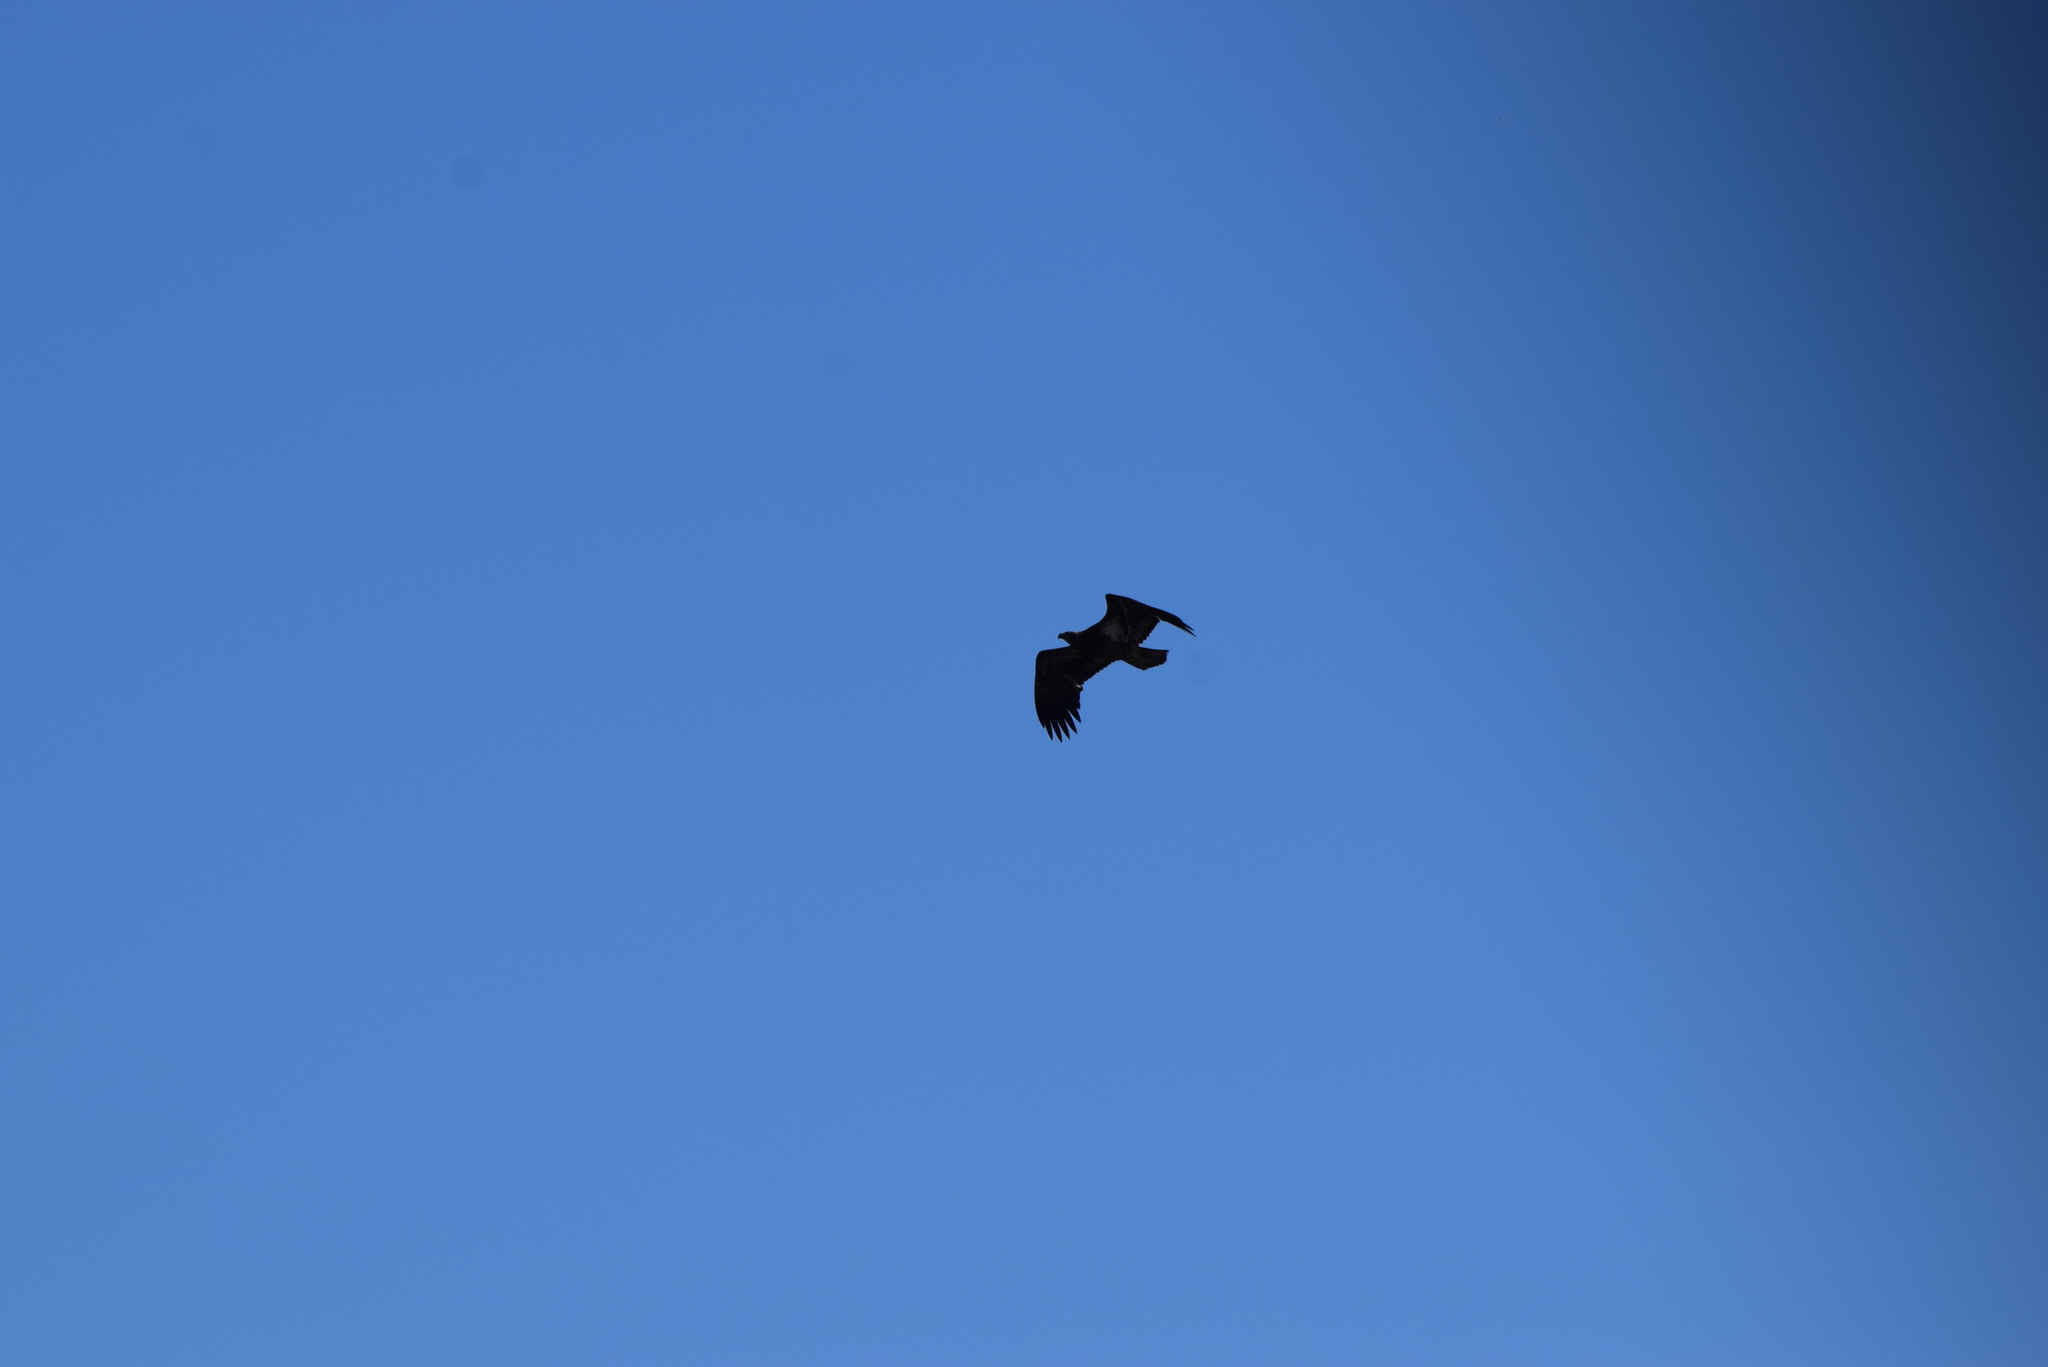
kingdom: Animalia
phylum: Chordata
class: Aves
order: Accipitriformes
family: Accipitridae
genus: Haliaeetus
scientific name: Haliaeetus leucocephalus
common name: Bald eagle
